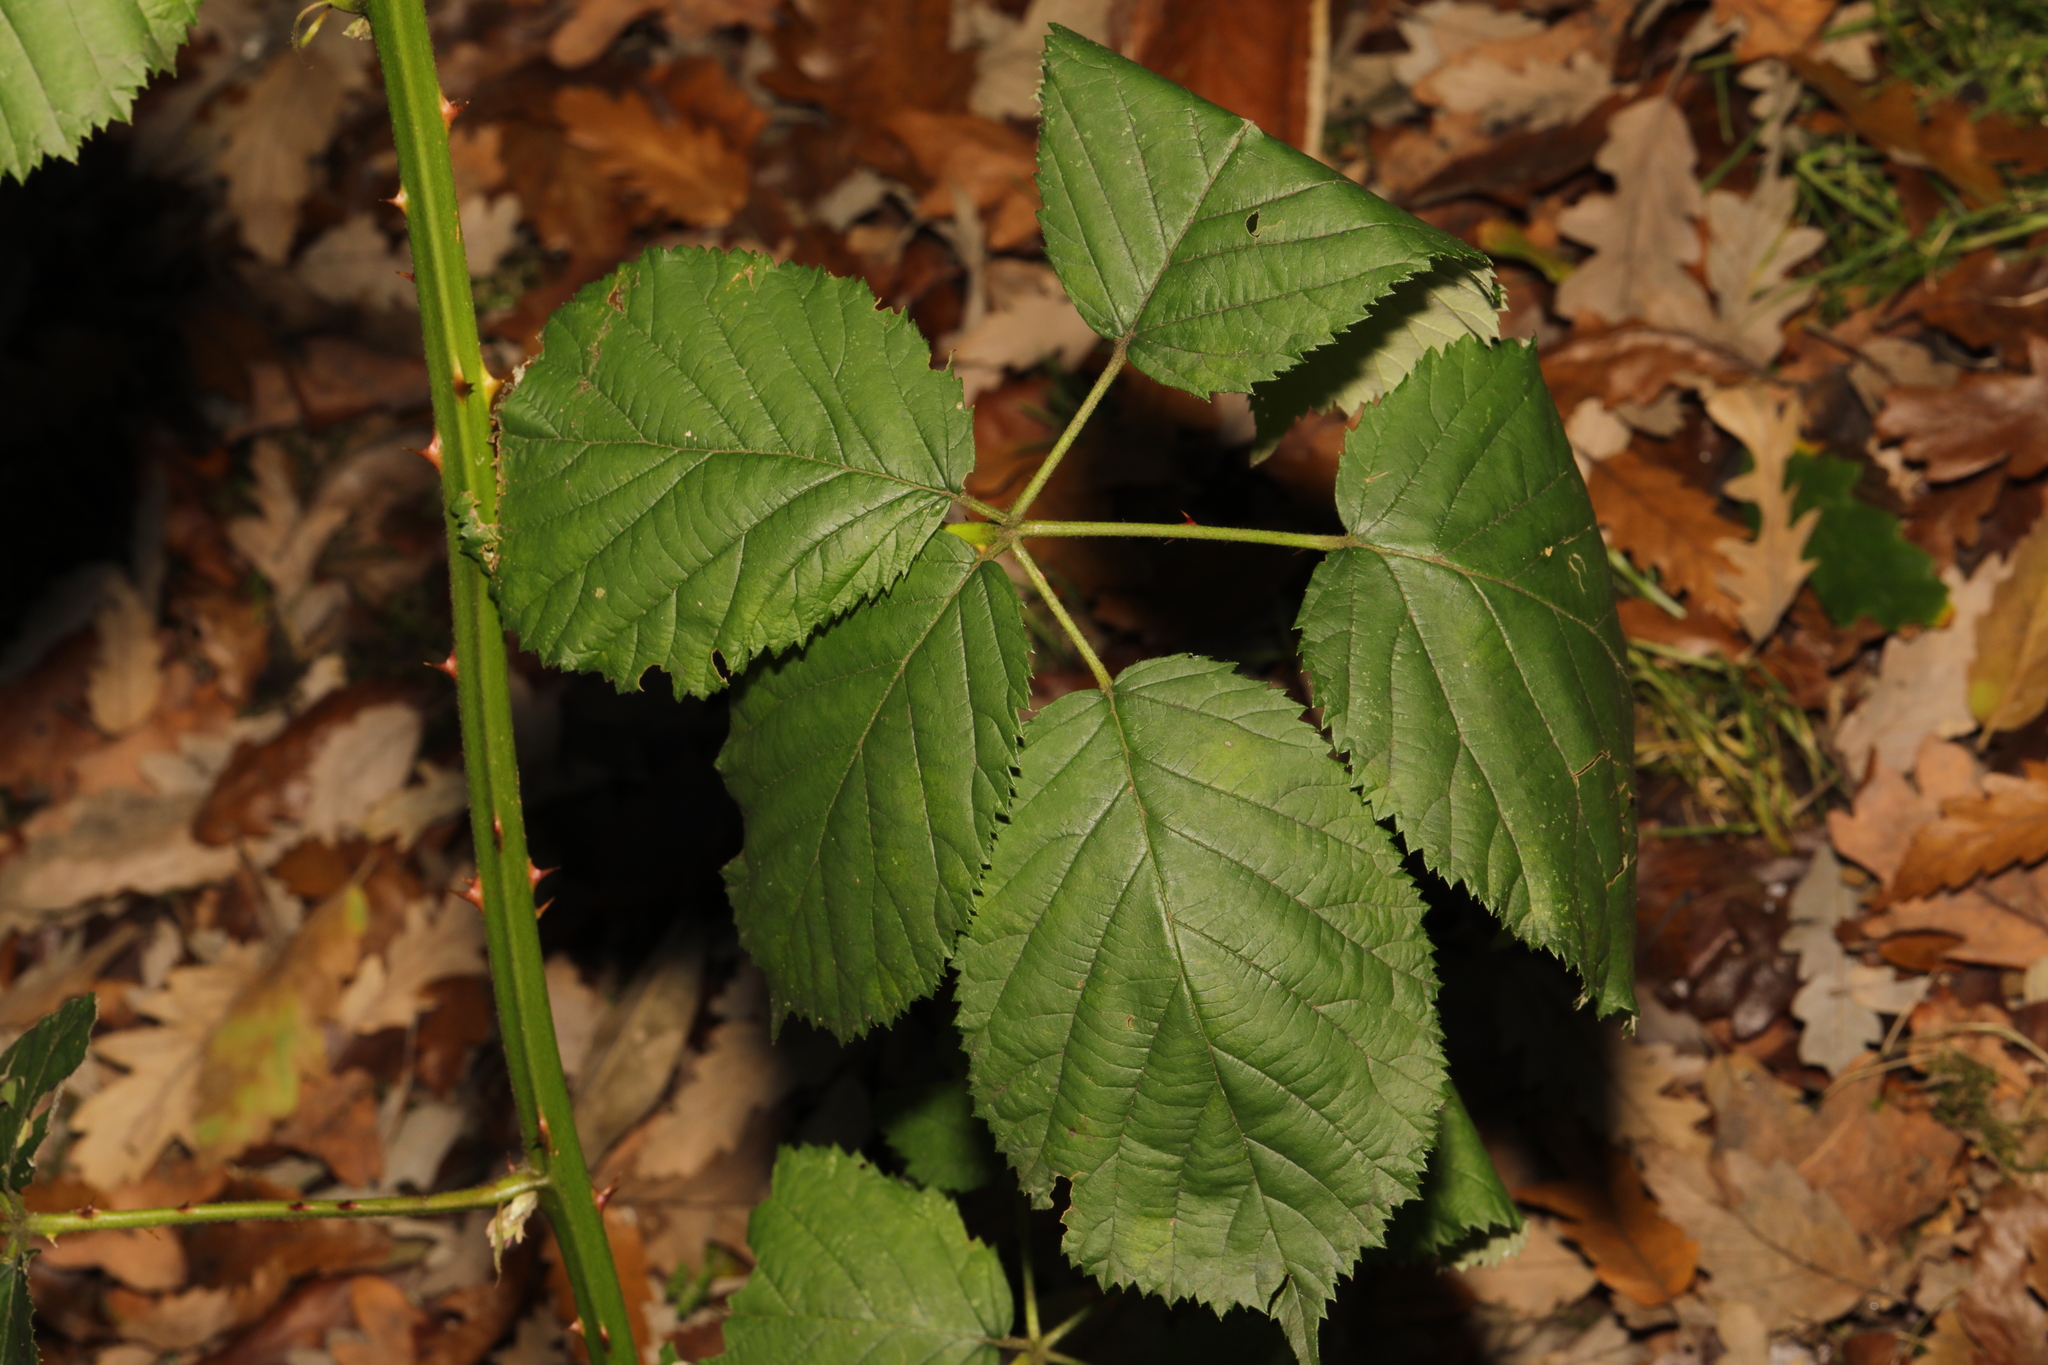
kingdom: Plantae
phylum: Tracheophyta
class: Magnoliopsida
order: Rosales
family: Rosaceae
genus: Rubus
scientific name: Rubus armeniacus
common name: Himalayan blackberry
